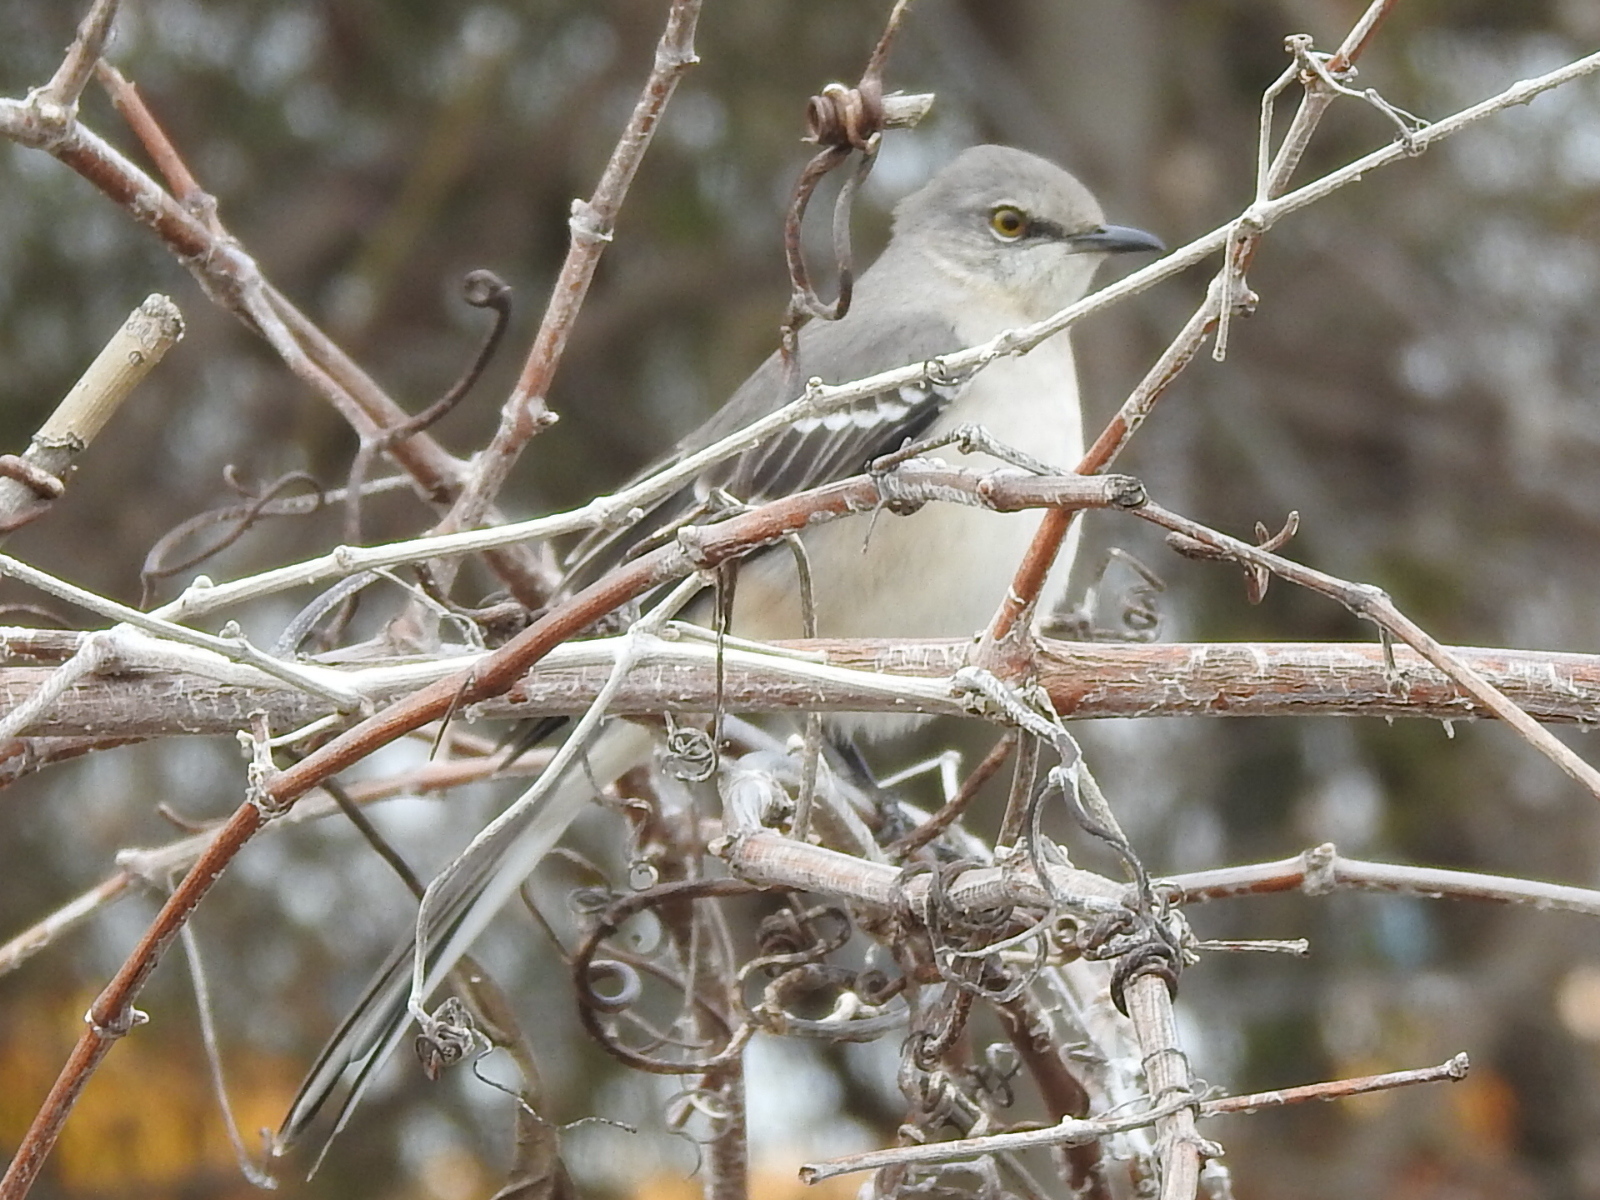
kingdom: Animalia
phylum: Chordata
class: Aves
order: Passeriformes
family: Mimidae
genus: Mimus
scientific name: Mimus polyglottos
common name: Northern mockingbird
